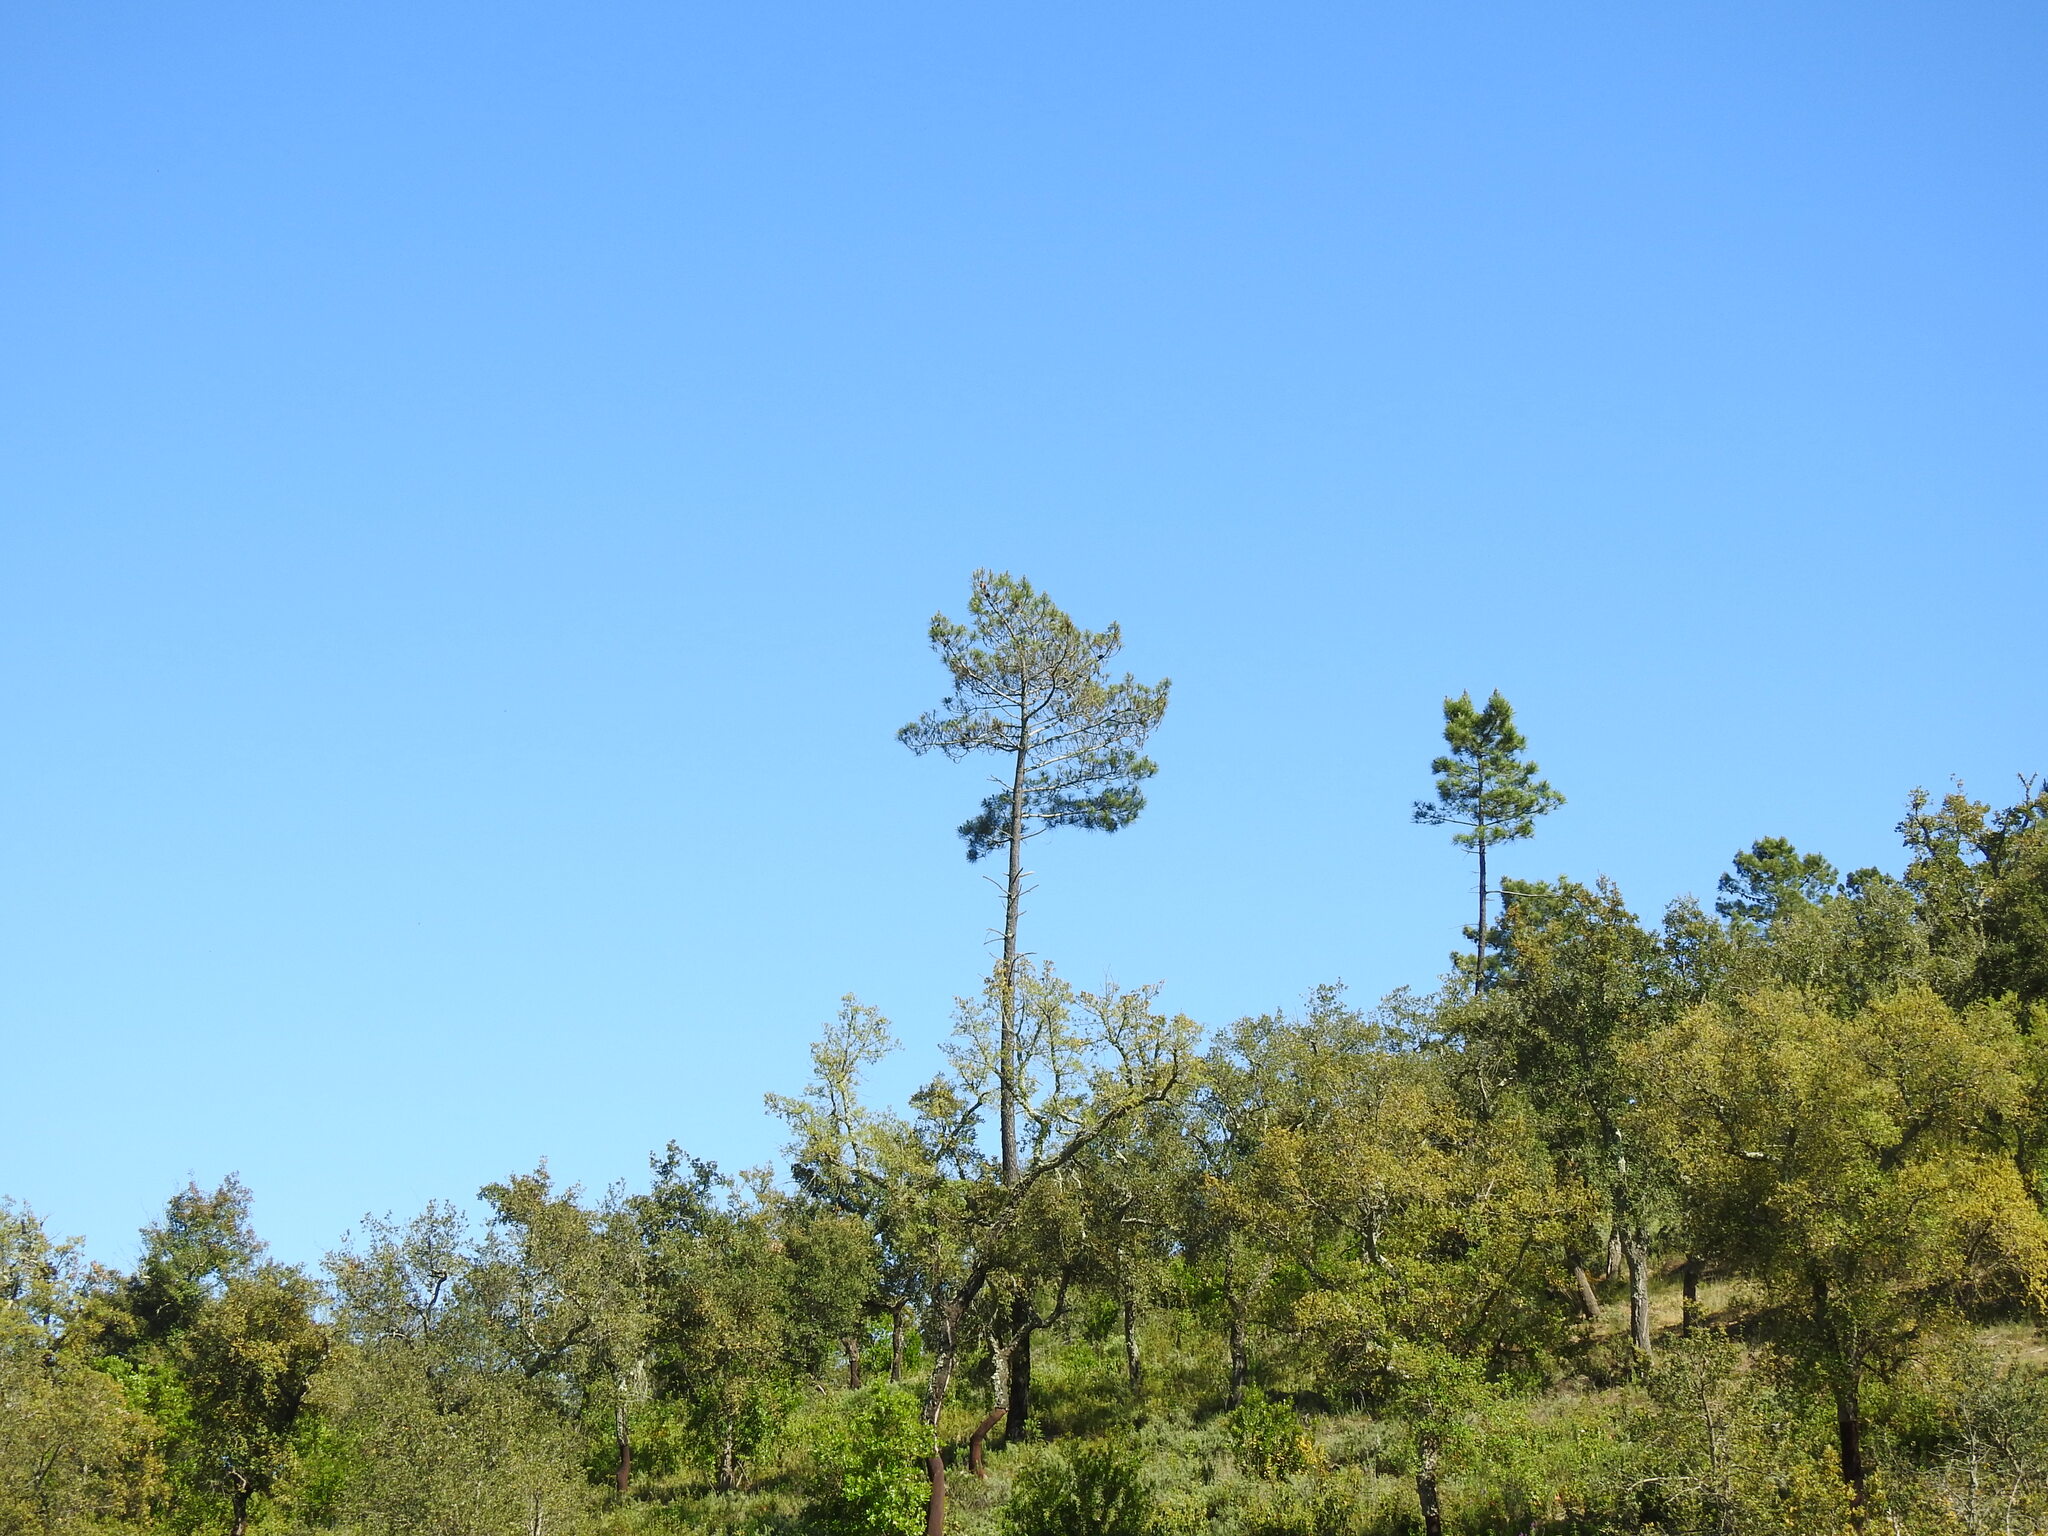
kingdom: Plantae
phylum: Tracheophyta
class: Pinopsida
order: Pinales
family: Pinaceae
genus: Pinus
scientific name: Pinus pinaster
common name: Maritime pine
